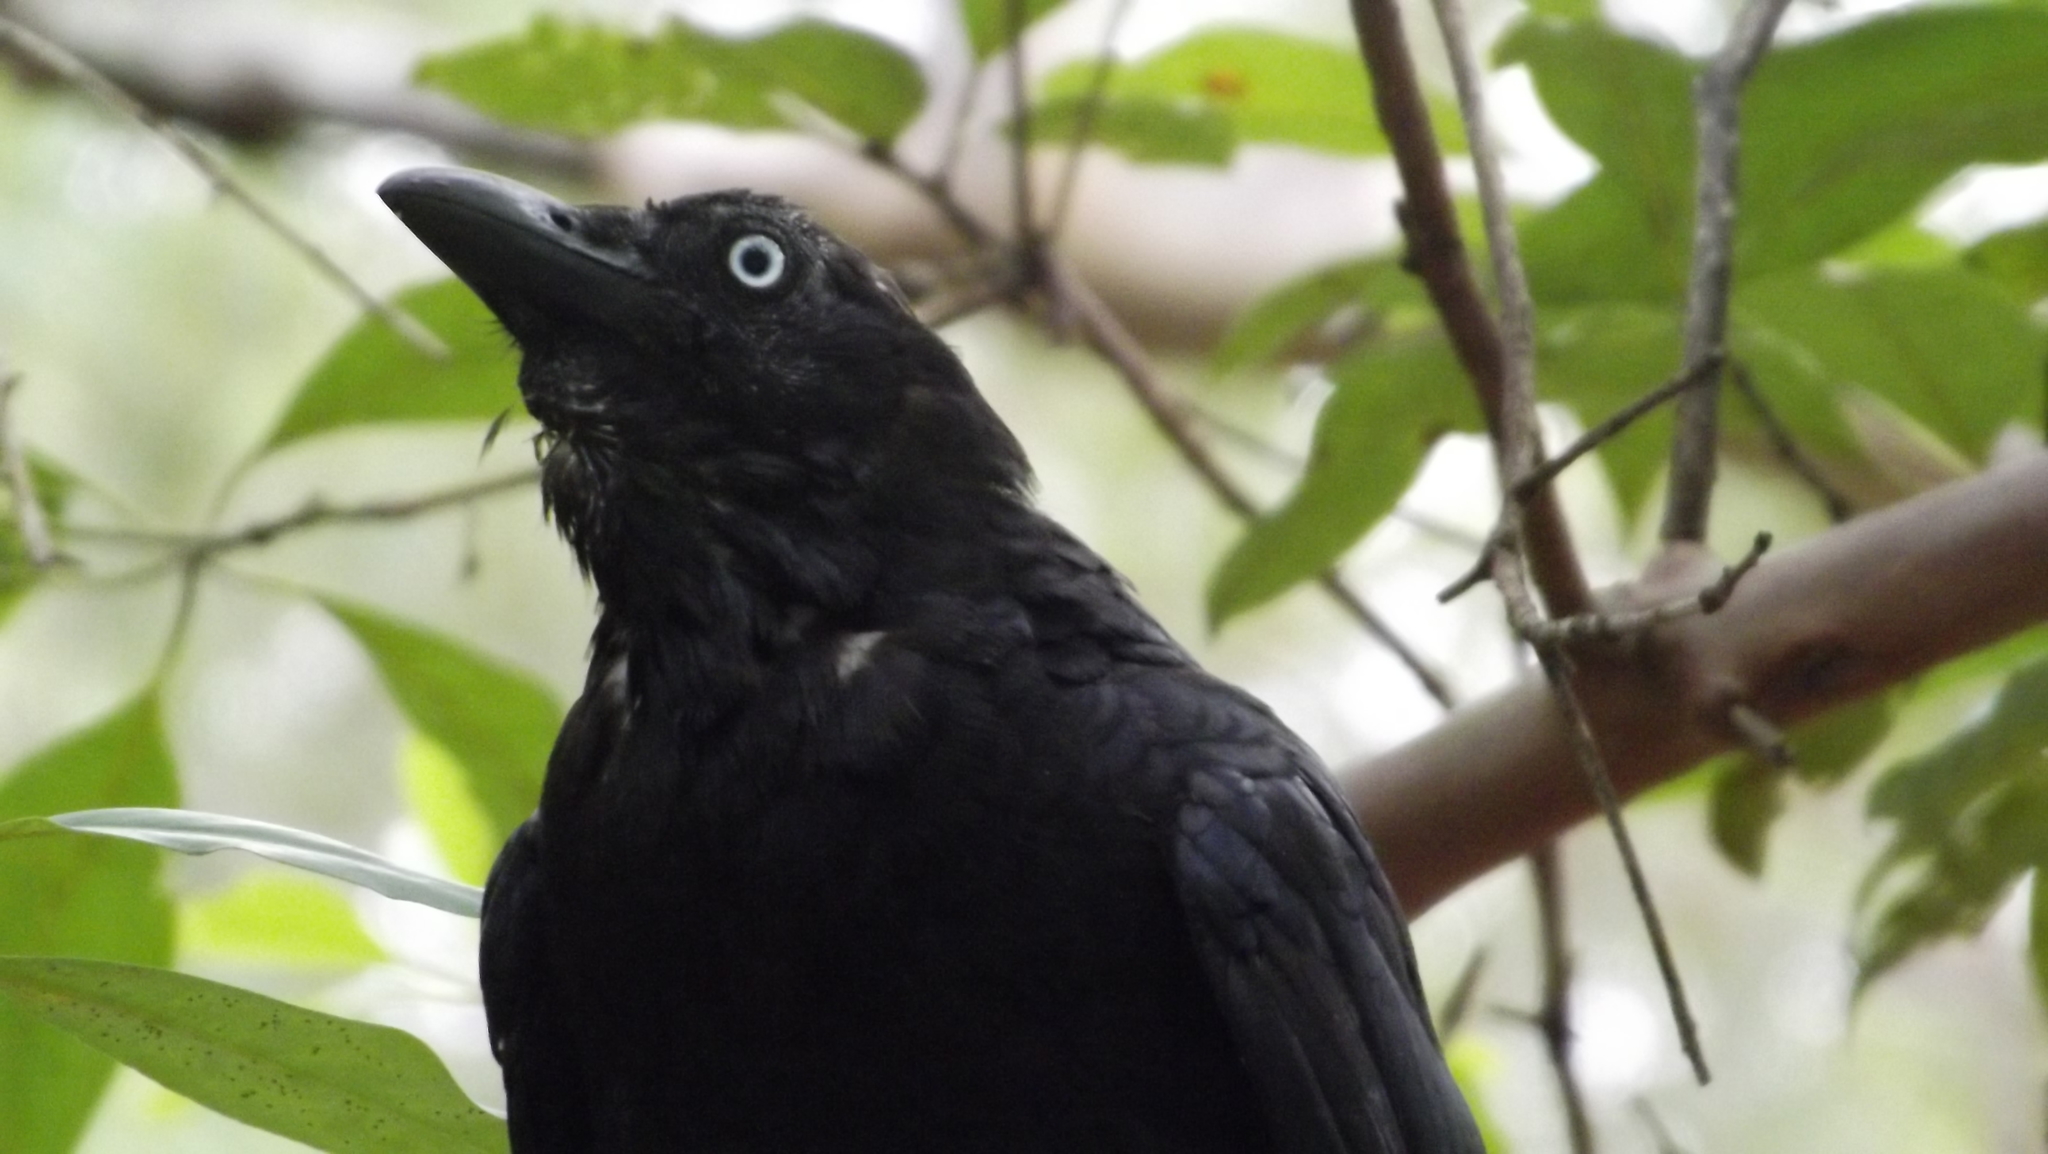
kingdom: Animalia
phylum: Chordata
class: Aves
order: Passeriformes
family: Corvidae
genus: Corvus
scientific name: Corvus orru
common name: Torresian crow
